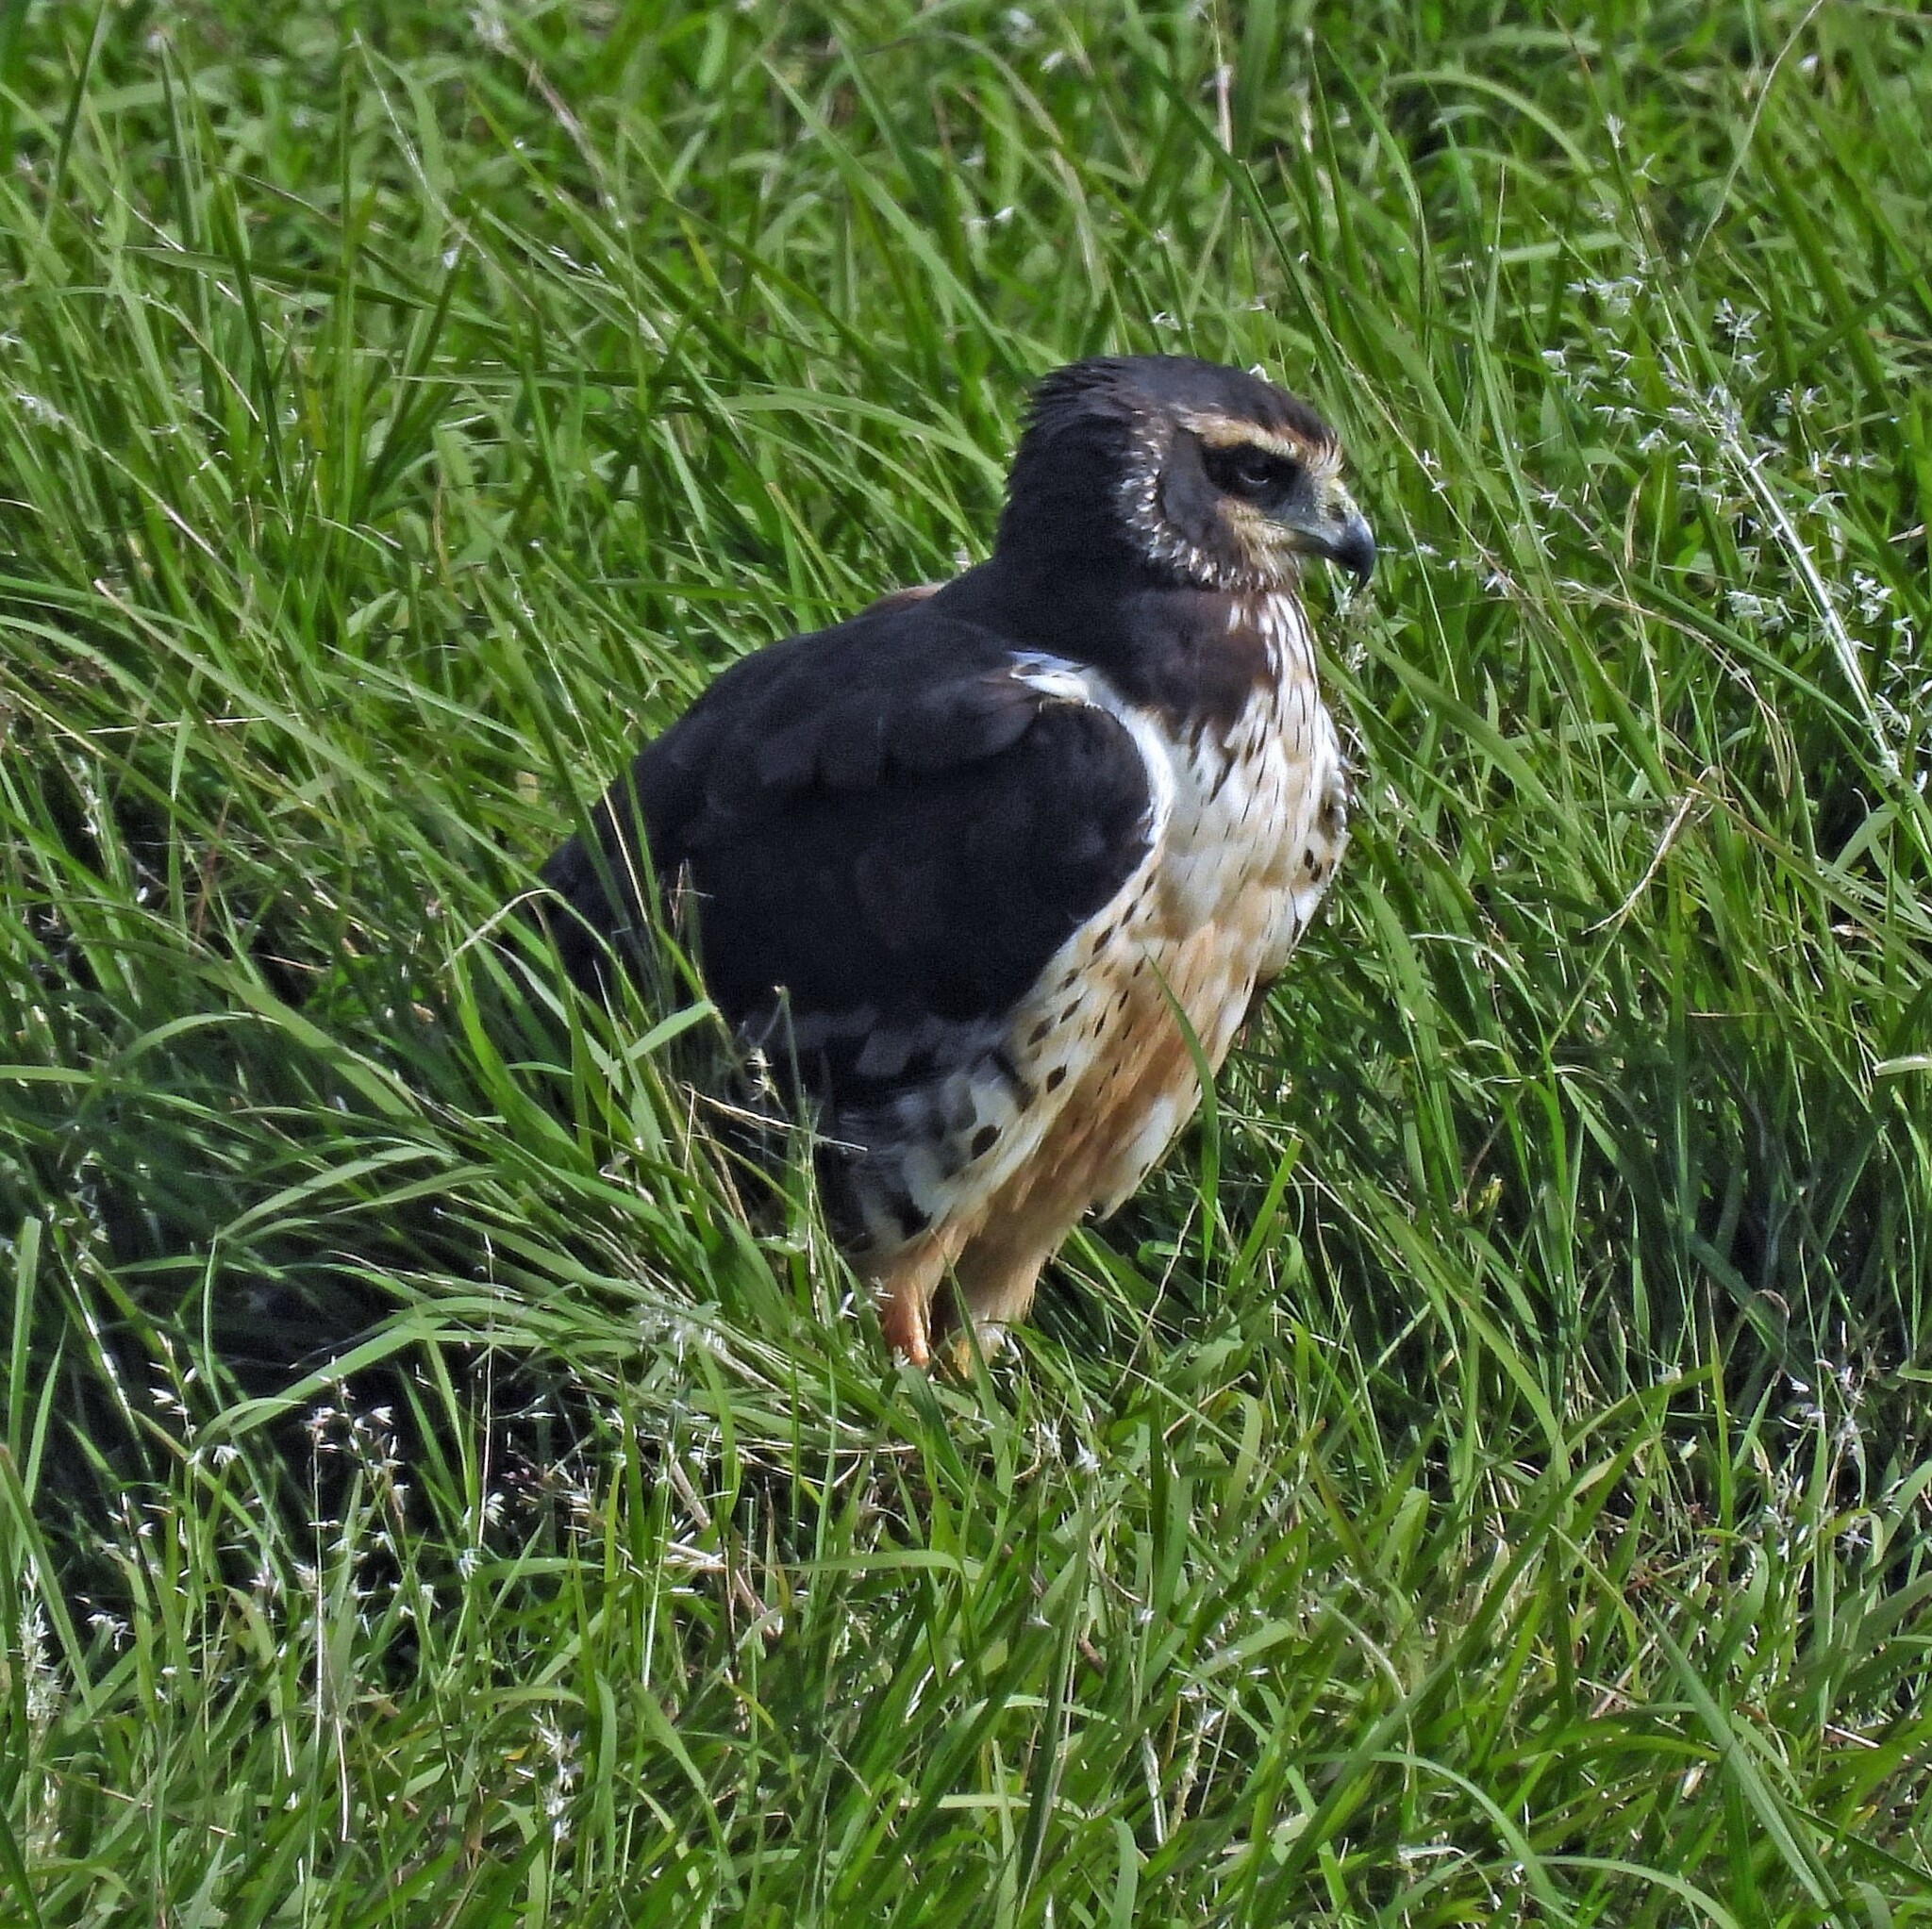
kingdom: Animalia
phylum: Chordata
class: Aves
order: Accipitriformes
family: Accipitridae
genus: Circus
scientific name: Circus buffoni
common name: Long-winged harrier
